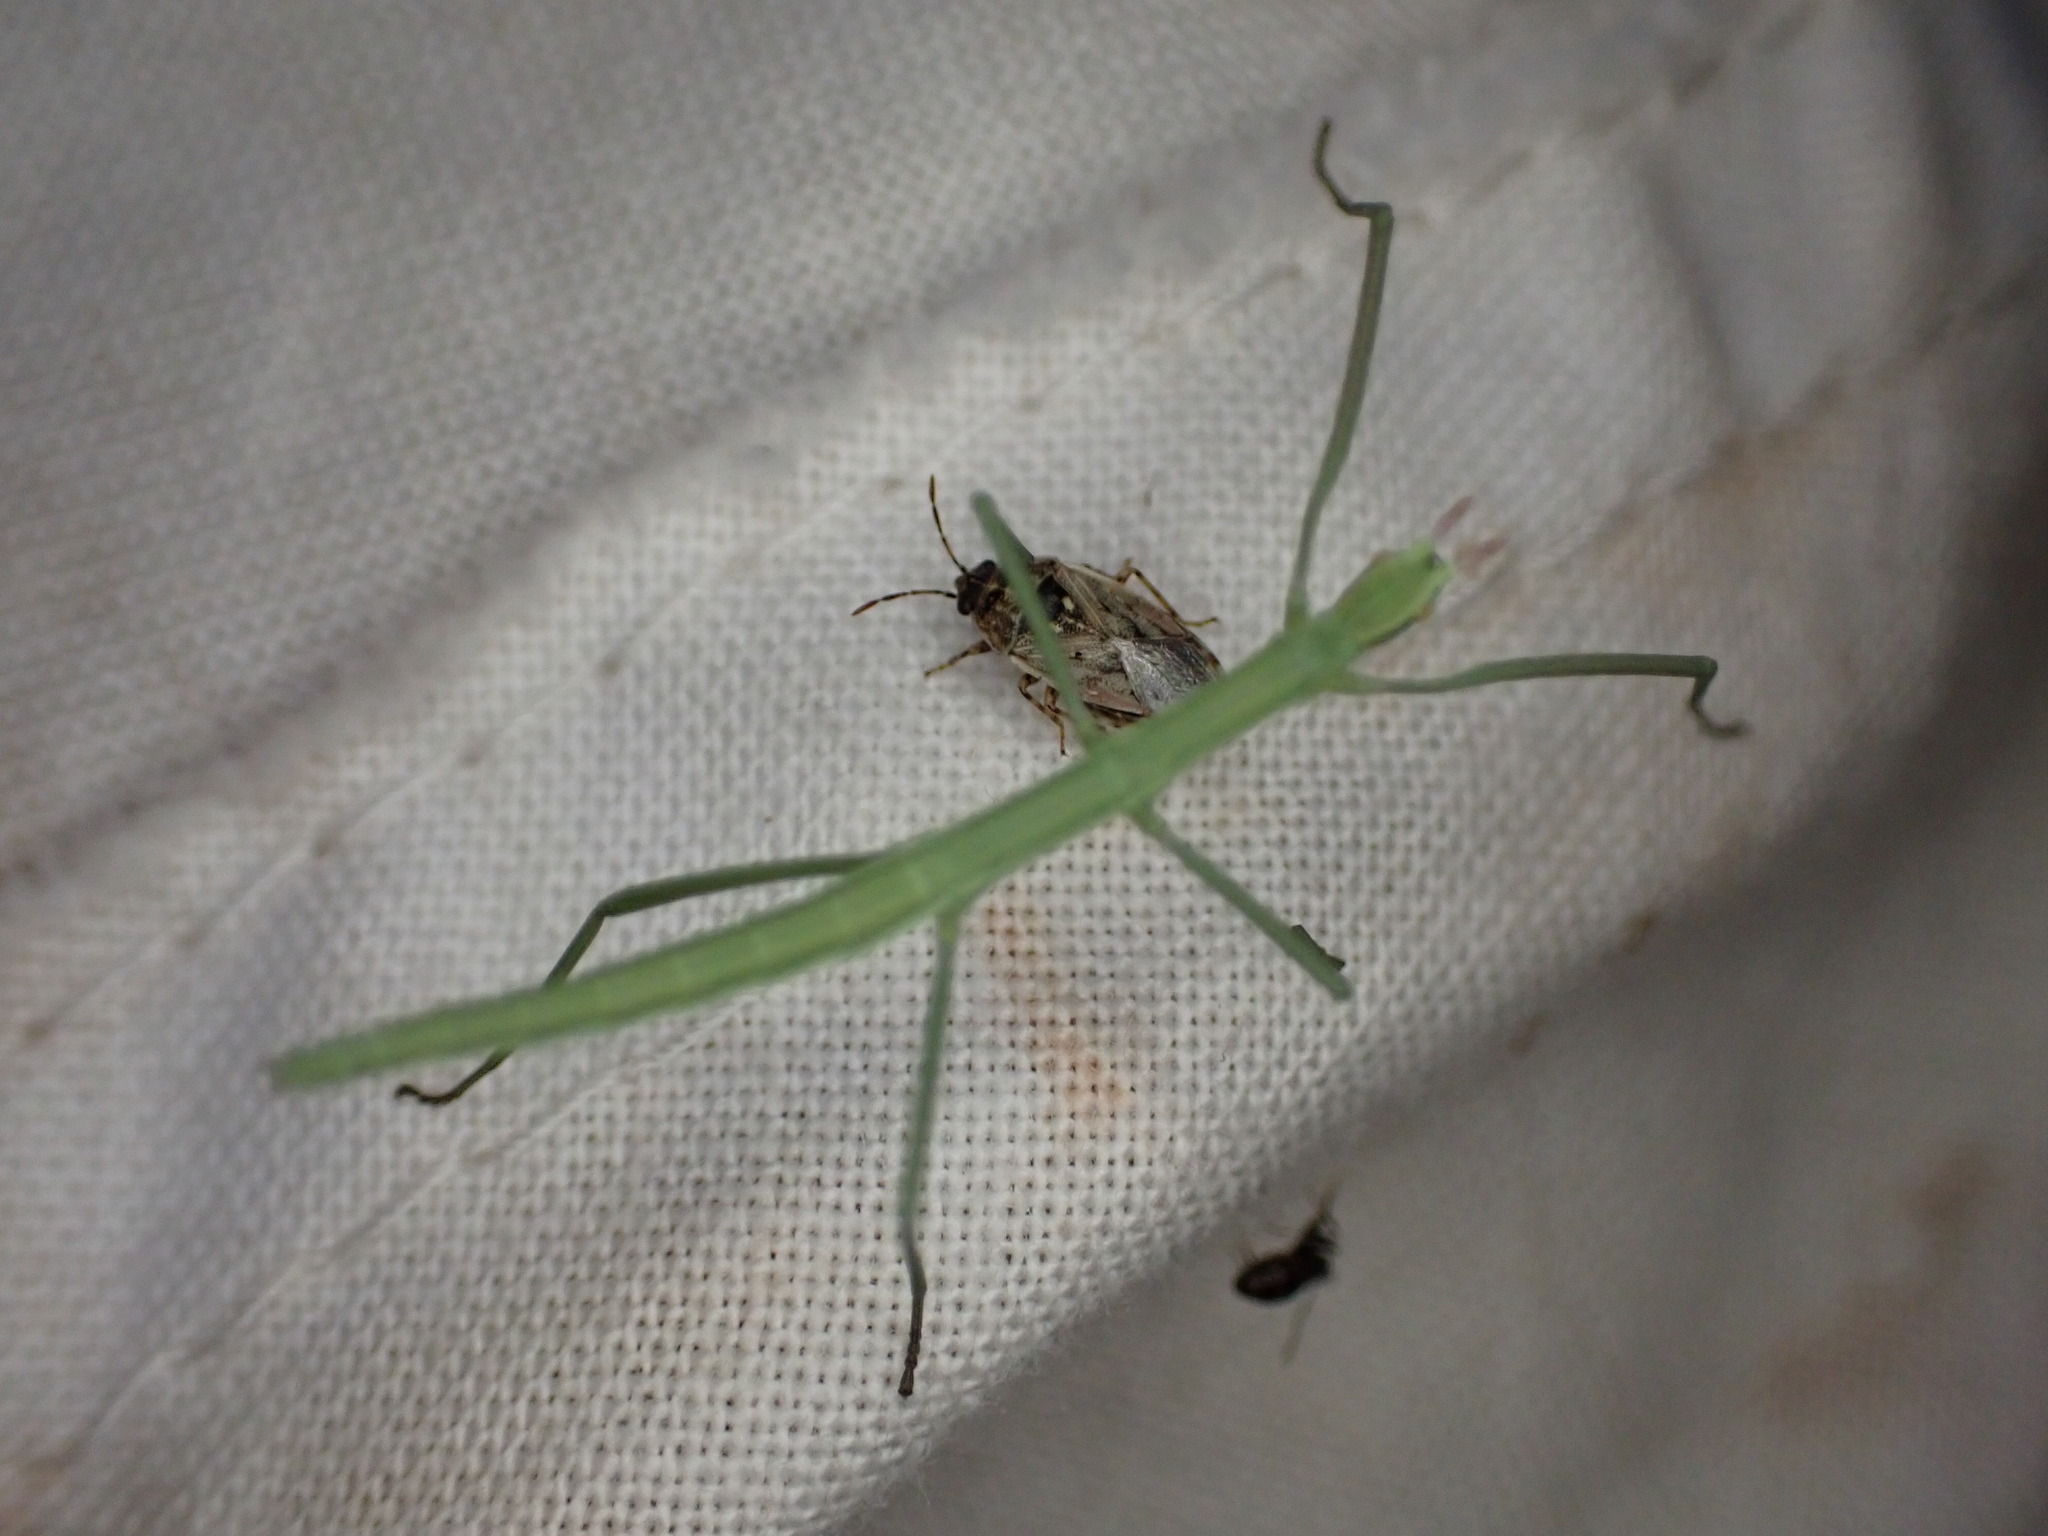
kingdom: Animalia
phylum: Arthropoda
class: Insecta
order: Phasmida
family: Bacillidae
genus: Pijnackeria
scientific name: Pijnackeria masettii
